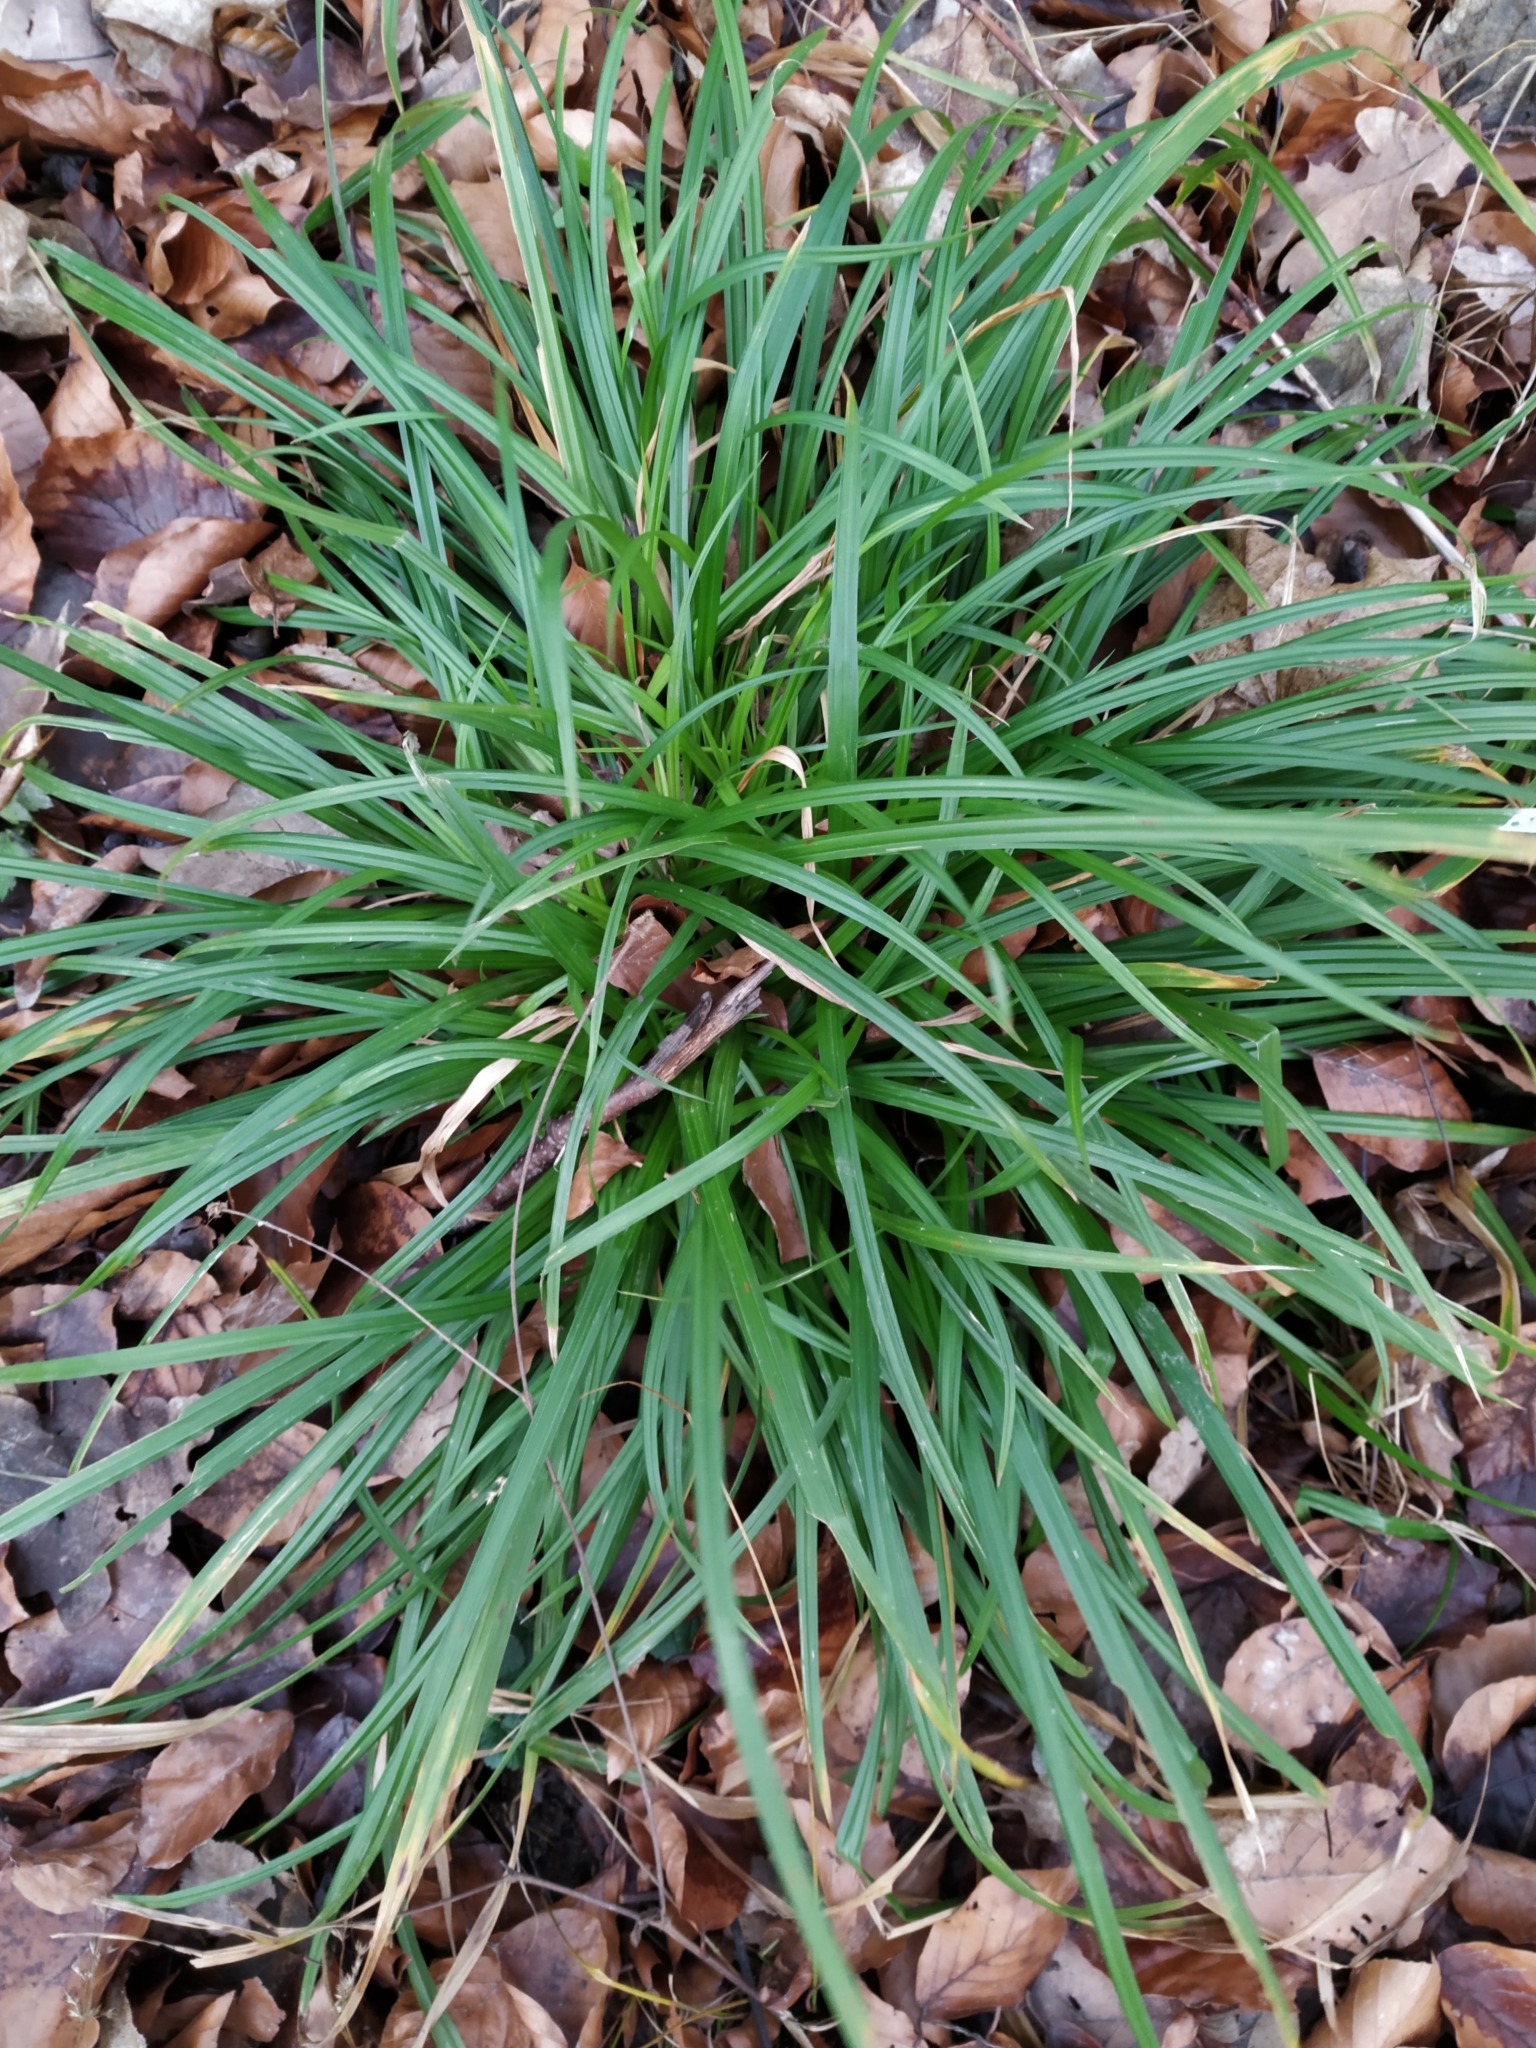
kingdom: Plantae
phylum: Tracheophyta
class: Liliopsida
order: Poales
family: Cyperaceae
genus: Carex
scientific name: Carex sylvatica
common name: Wood-sedge
